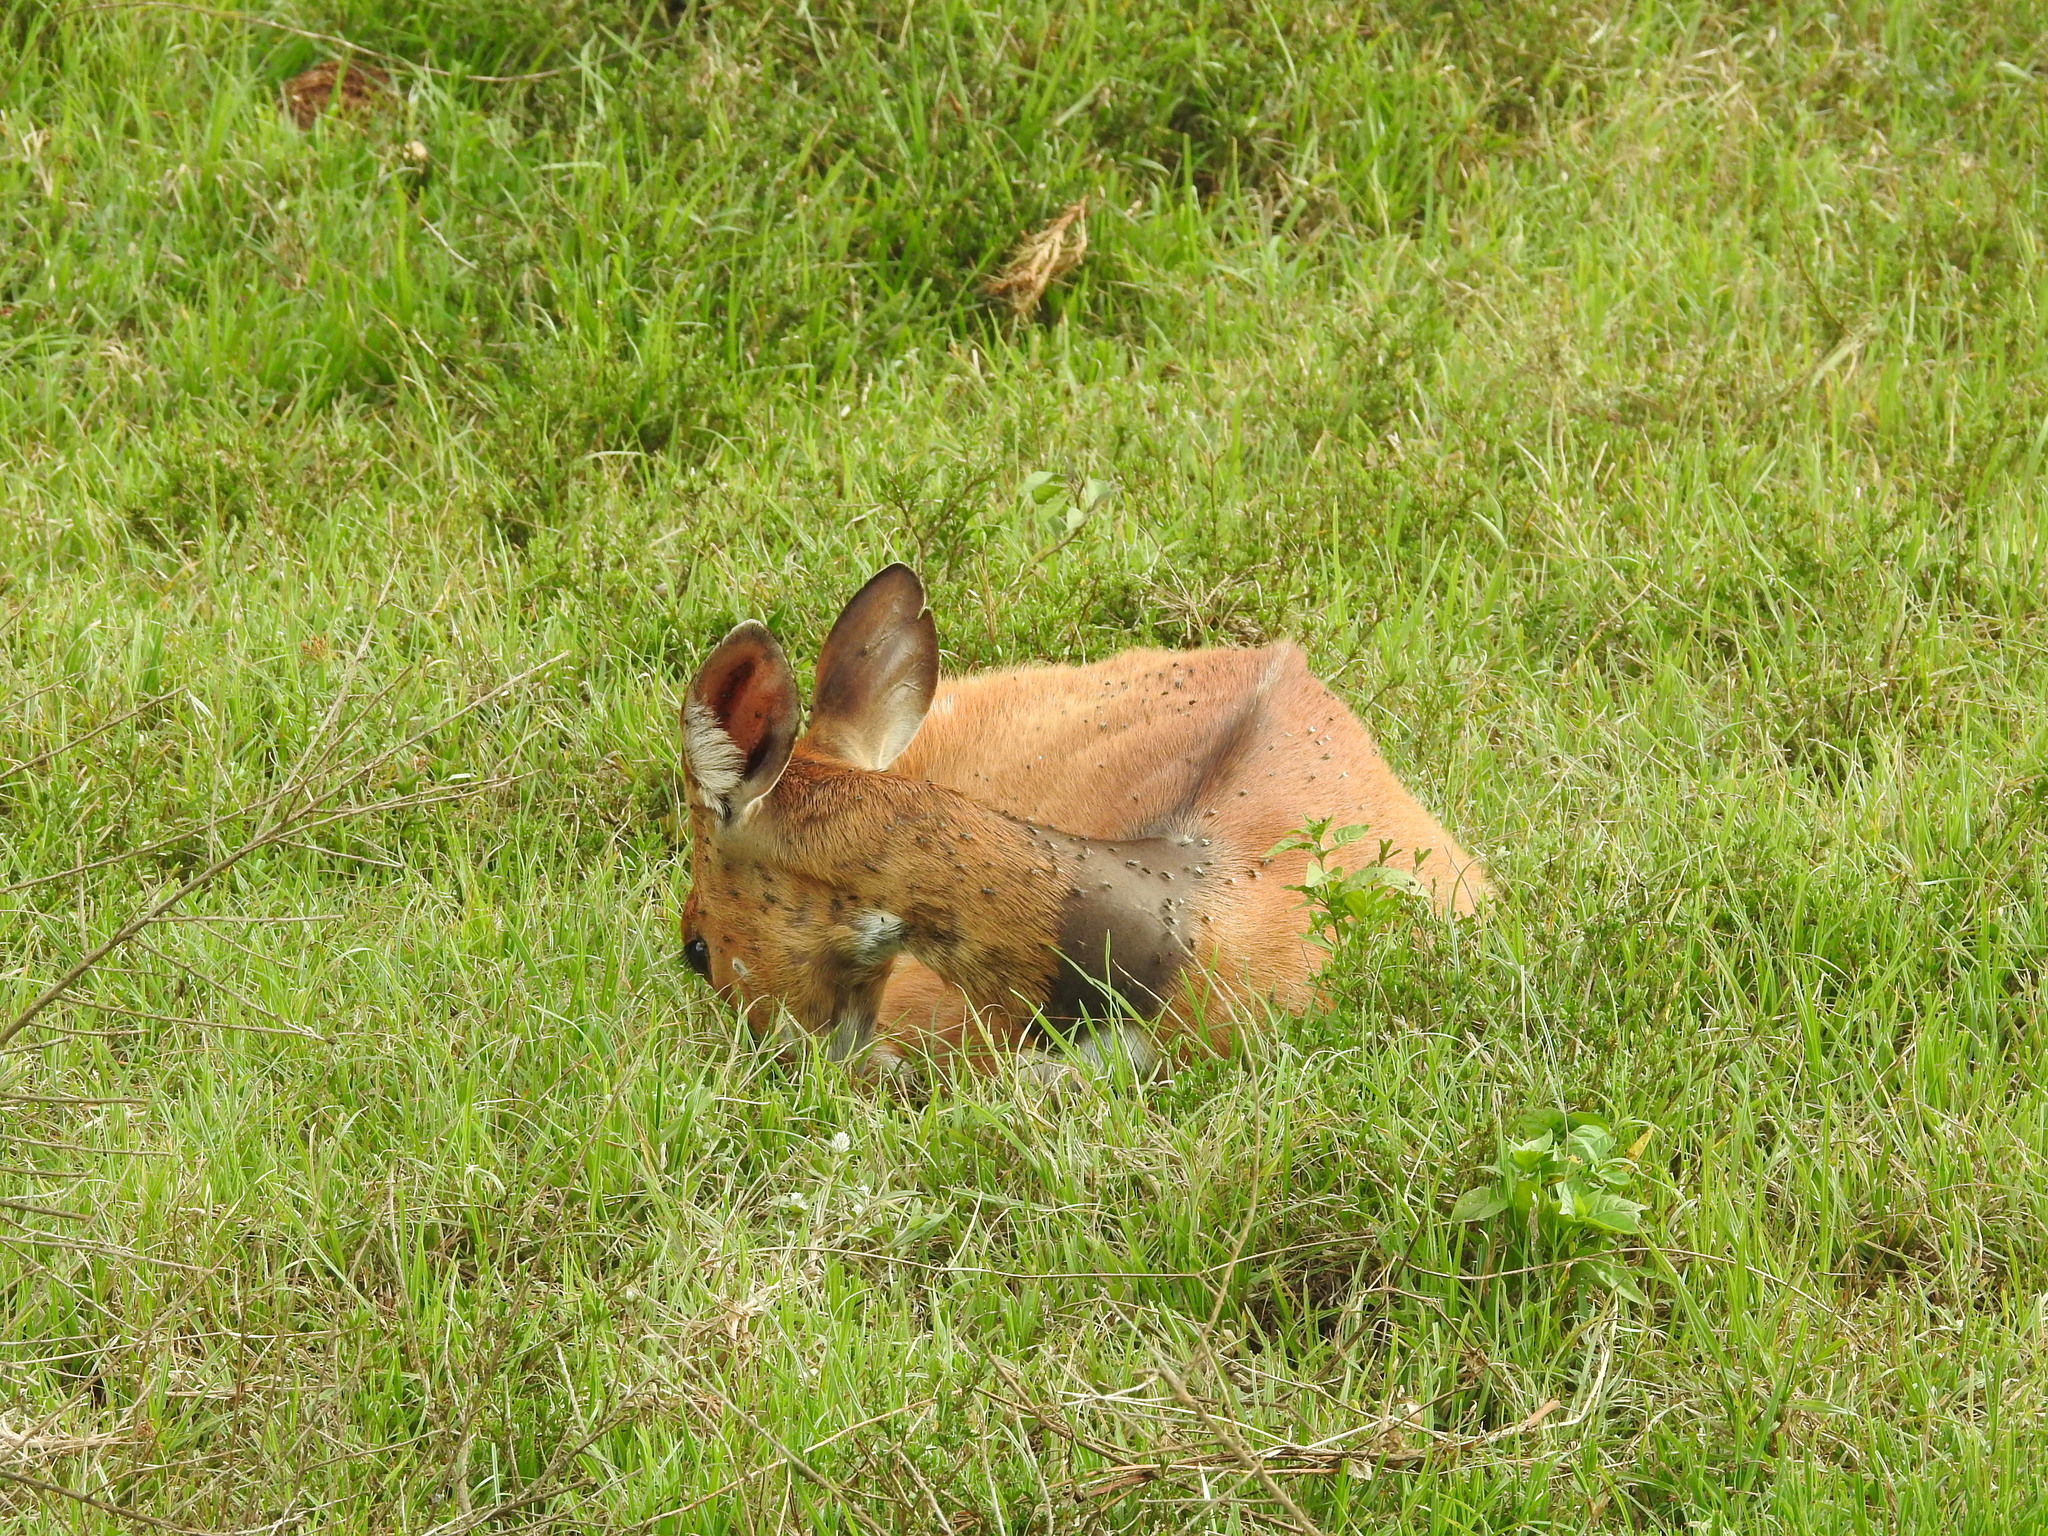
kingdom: Animalia
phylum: Chordata
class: Mammalia
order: Artiodactyla
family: Bovidae
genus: Tragelaphus
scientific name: Tragelaphus scriptus
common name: Bushbuck
